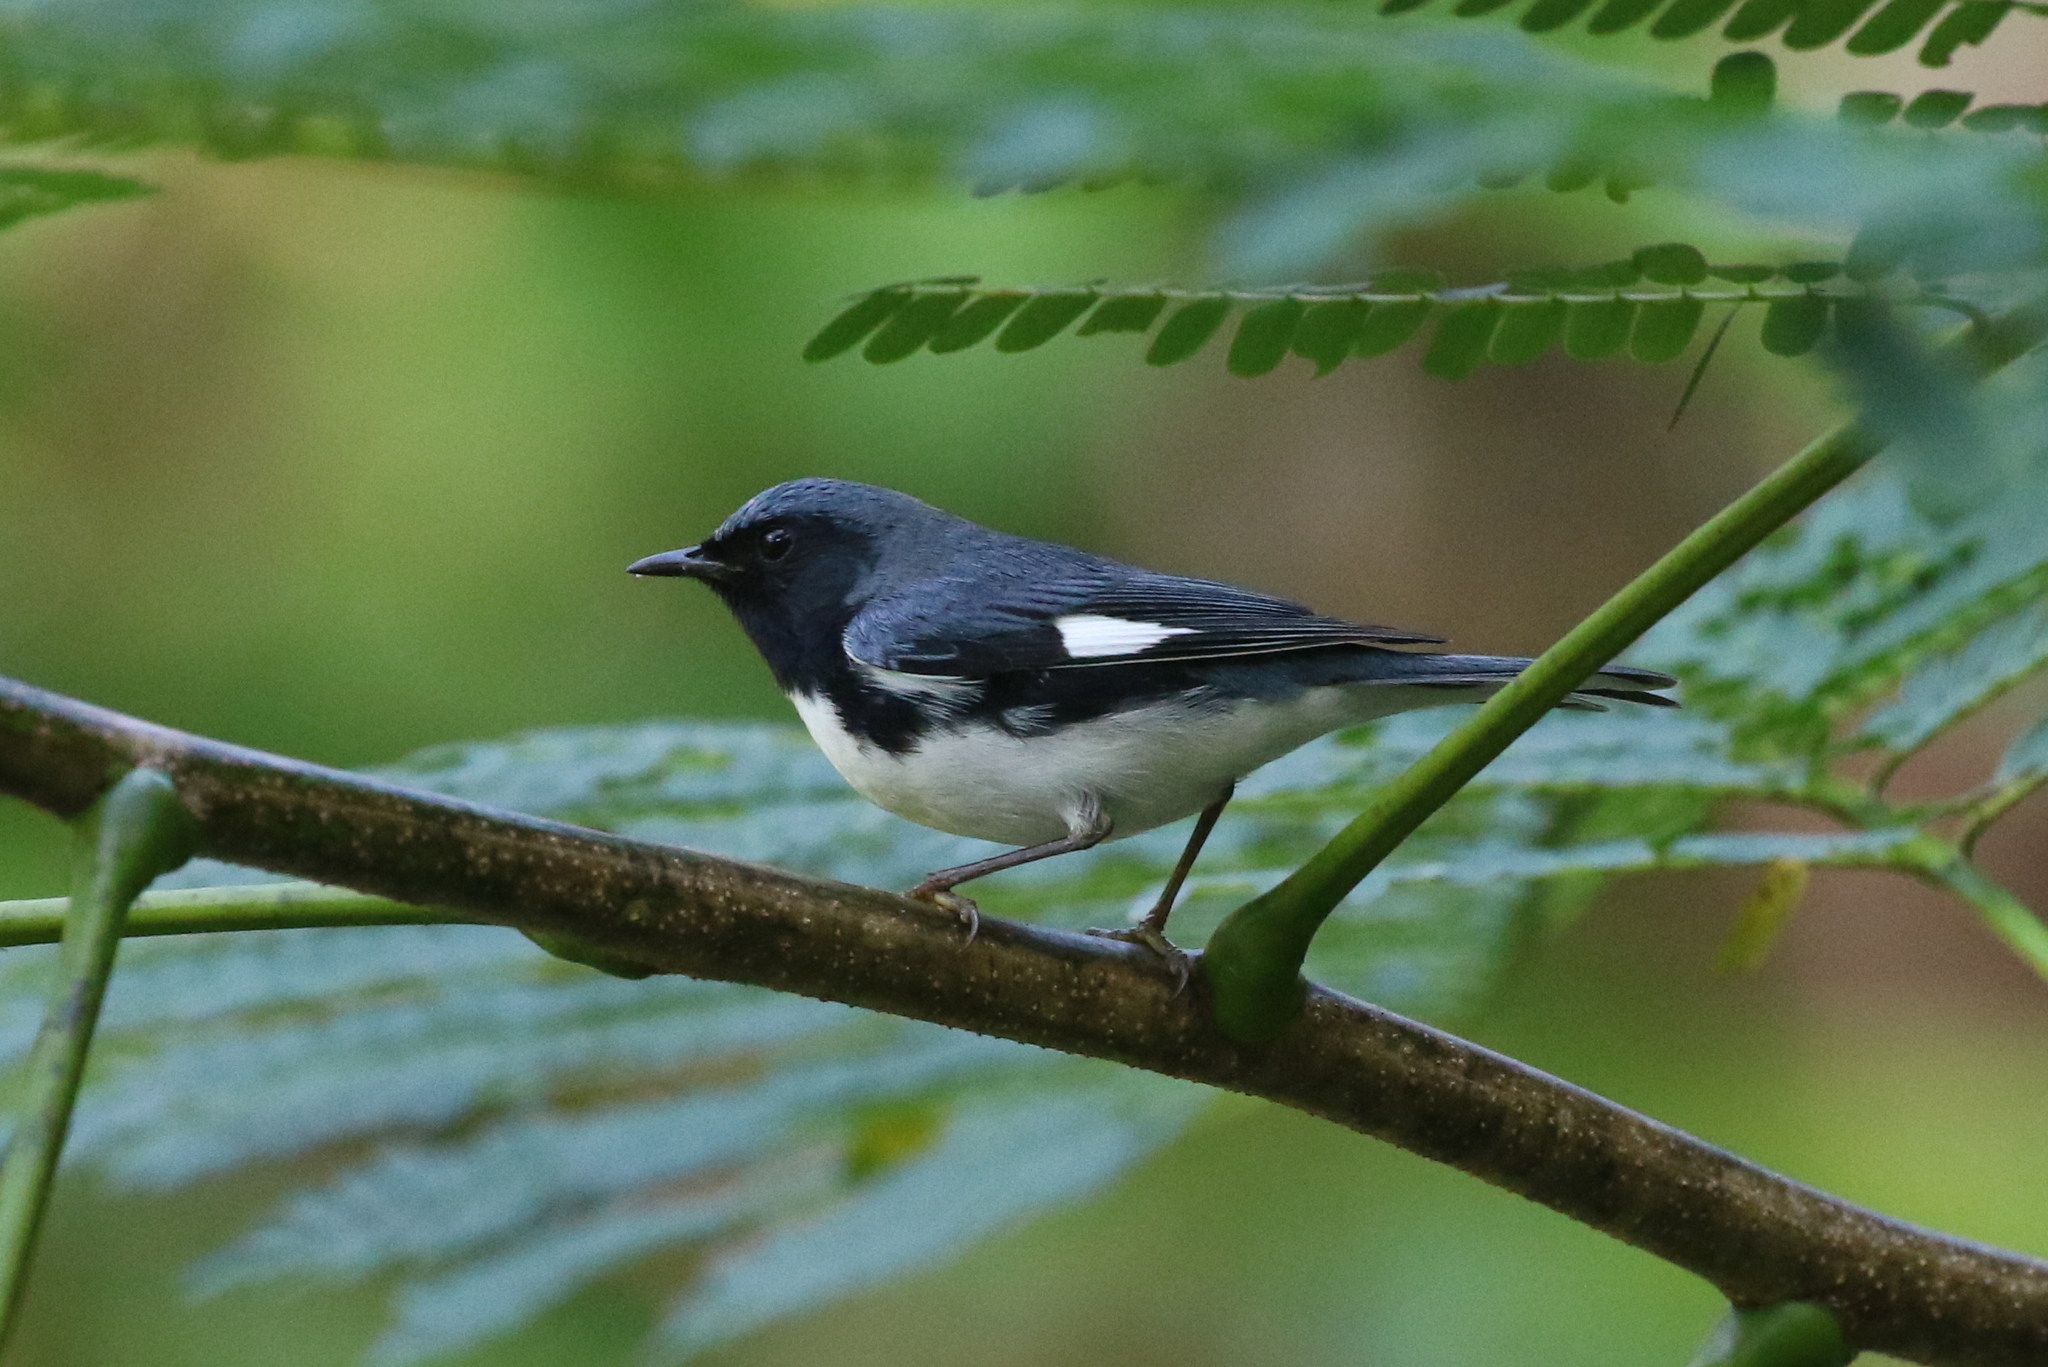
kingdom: Animalia
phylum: Chordata
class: Aves
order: Passeriformes
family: Parulidae
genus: Setophaga
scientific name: Setophaga caerulescens
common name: Black-throated blue warbler
